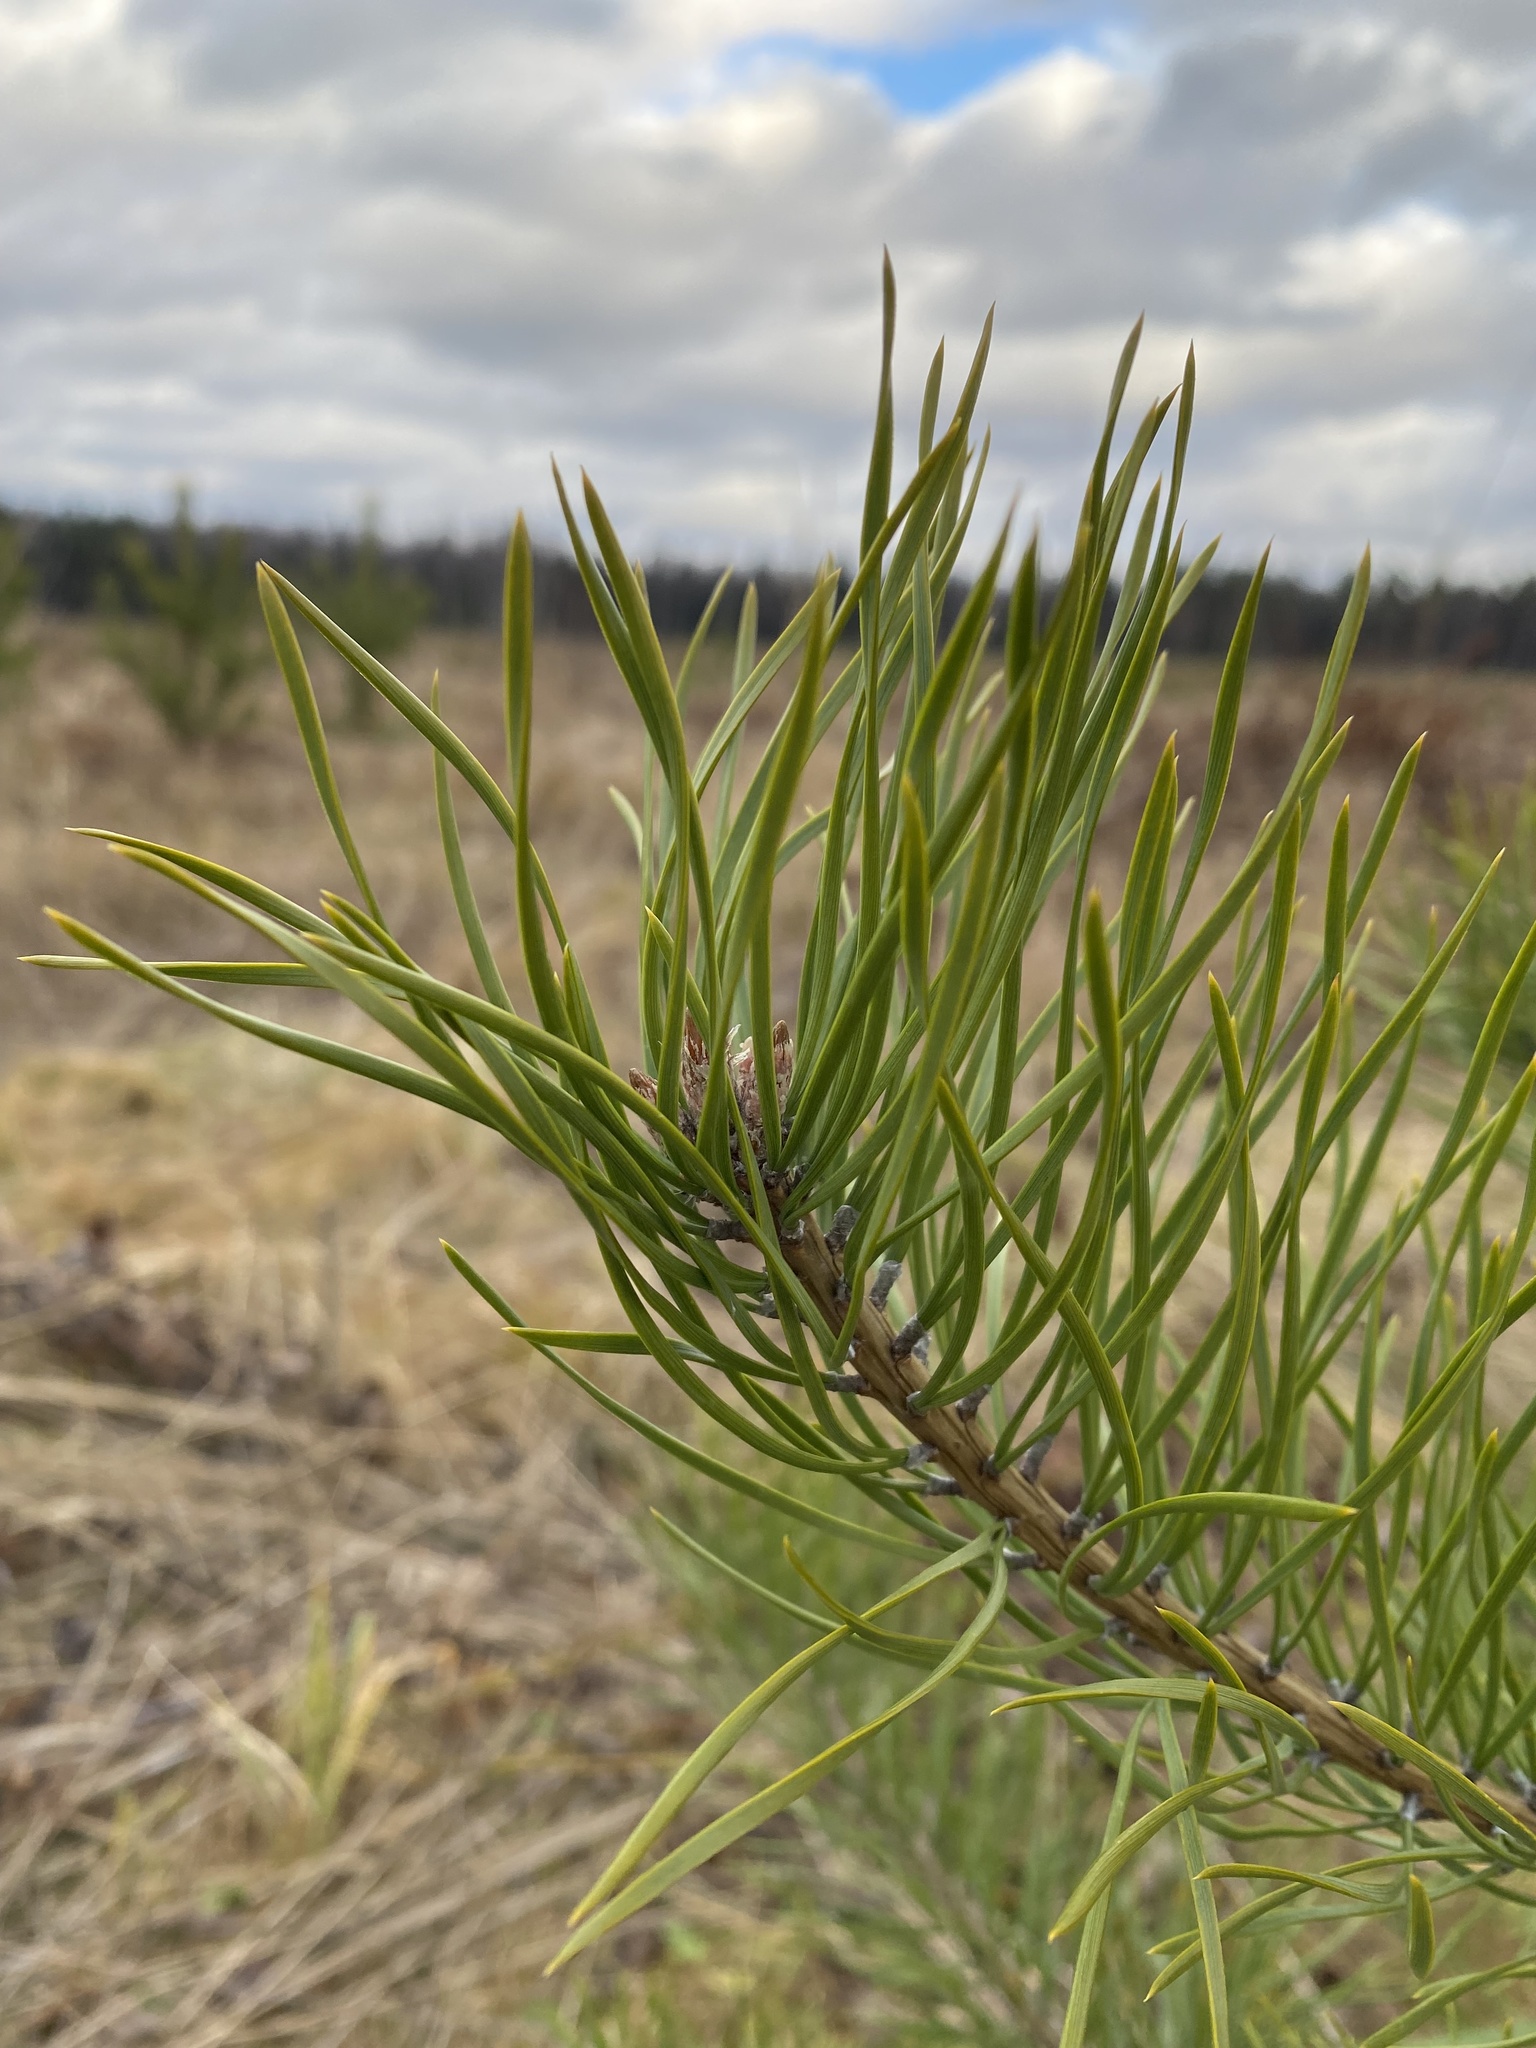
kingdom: Plantae
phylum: Tracheophyta
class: Pinopsida
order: Pinales
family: Pinaceae
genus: Pinus
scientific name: Pinus sylvestris
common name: Scots pine
